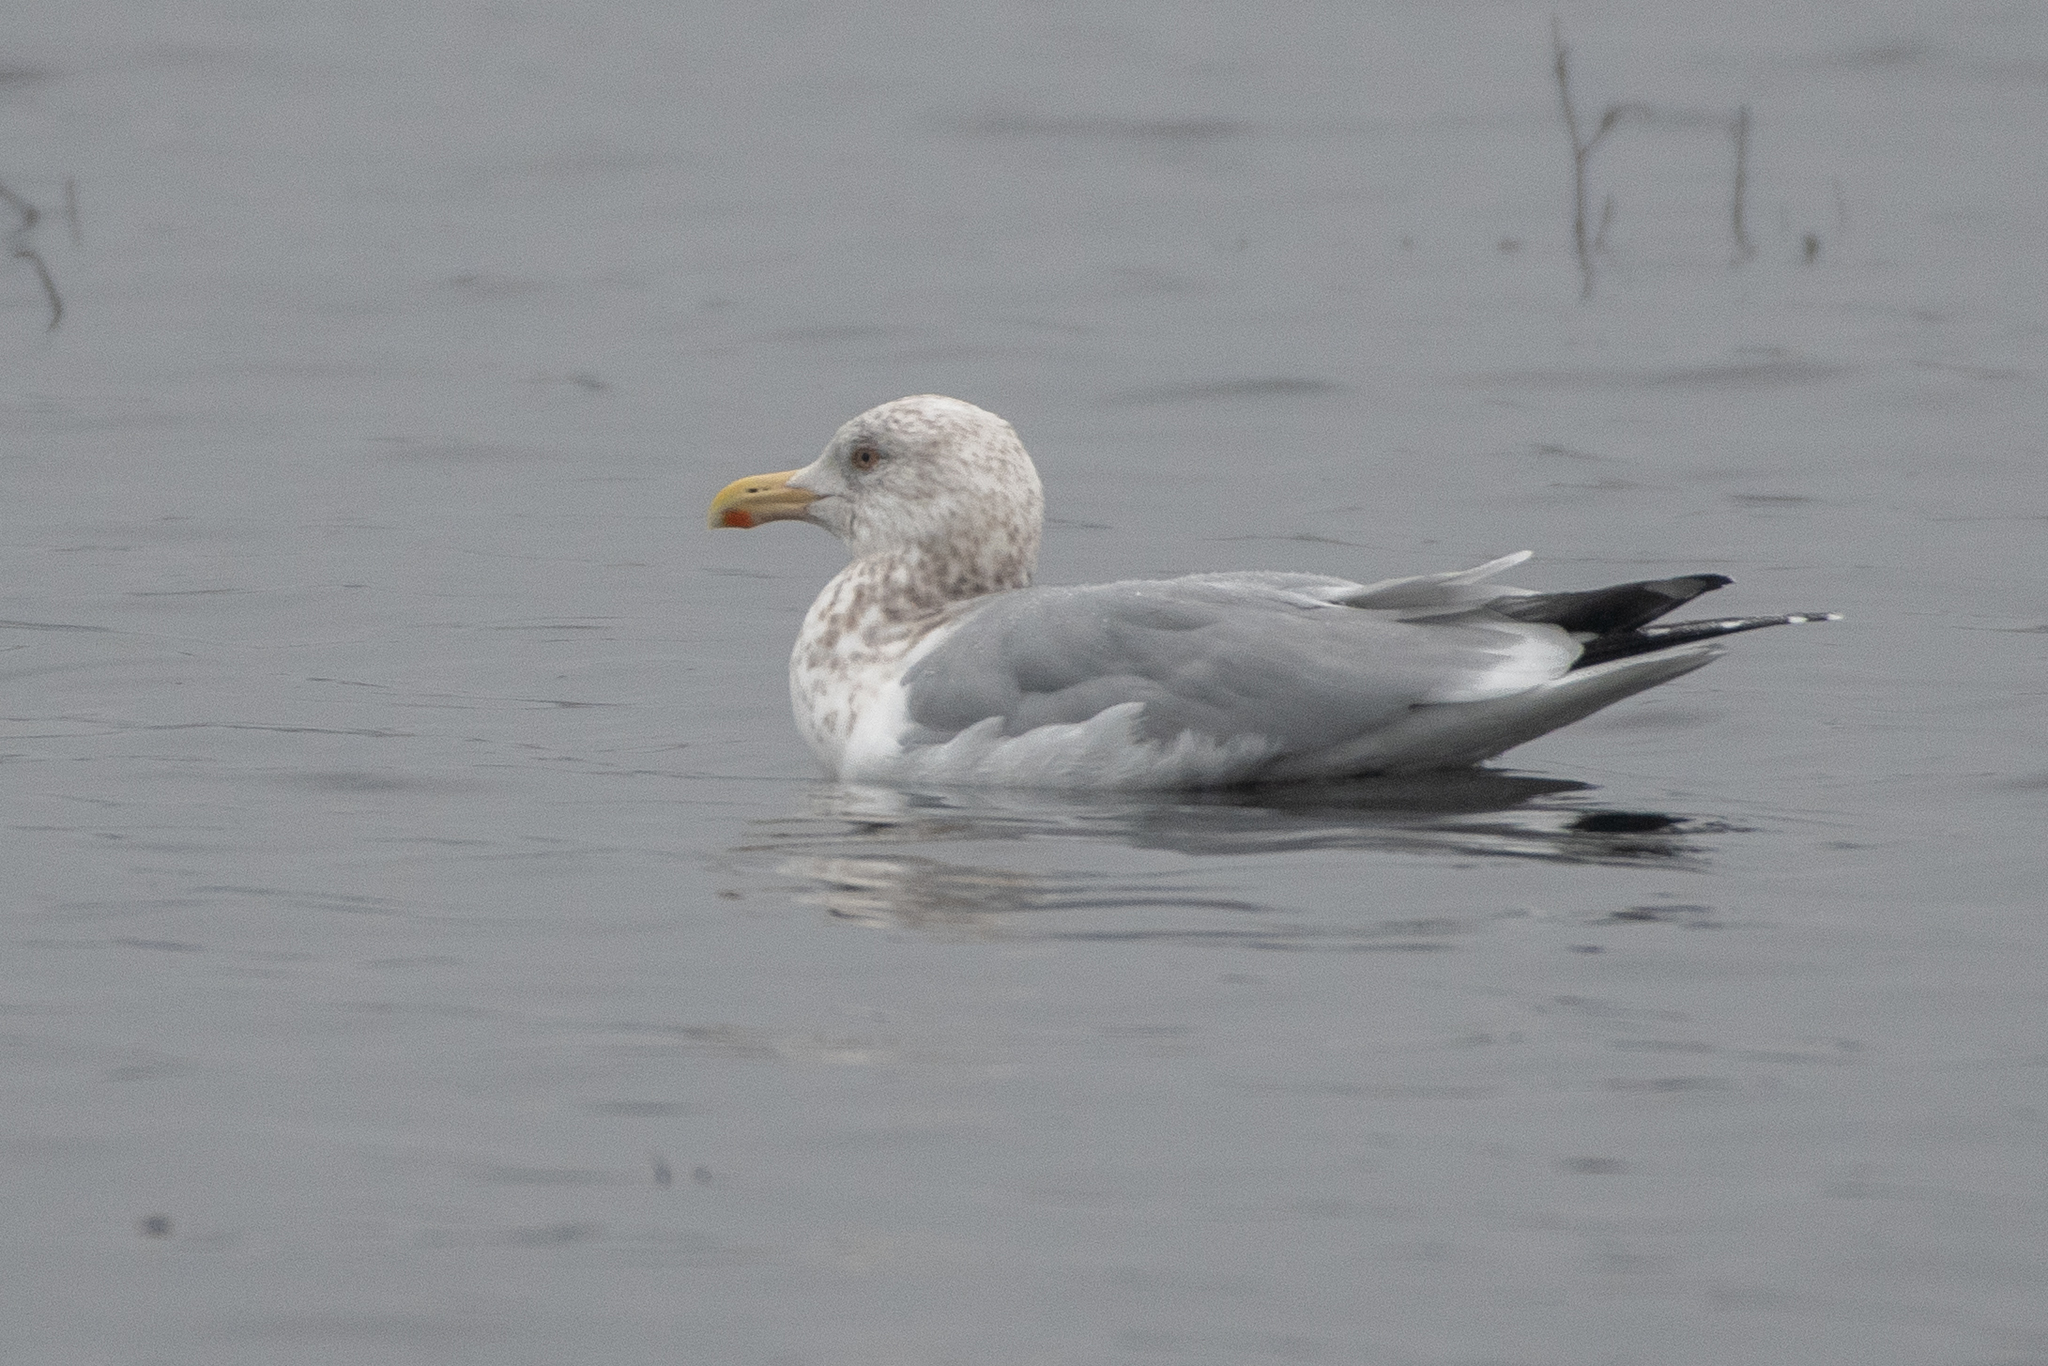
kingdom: Animalia
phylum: Chordata
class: Aves
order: Charadriiformes
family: Laridae
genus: Larus
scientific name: Larus argentatus
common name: Herring gull
